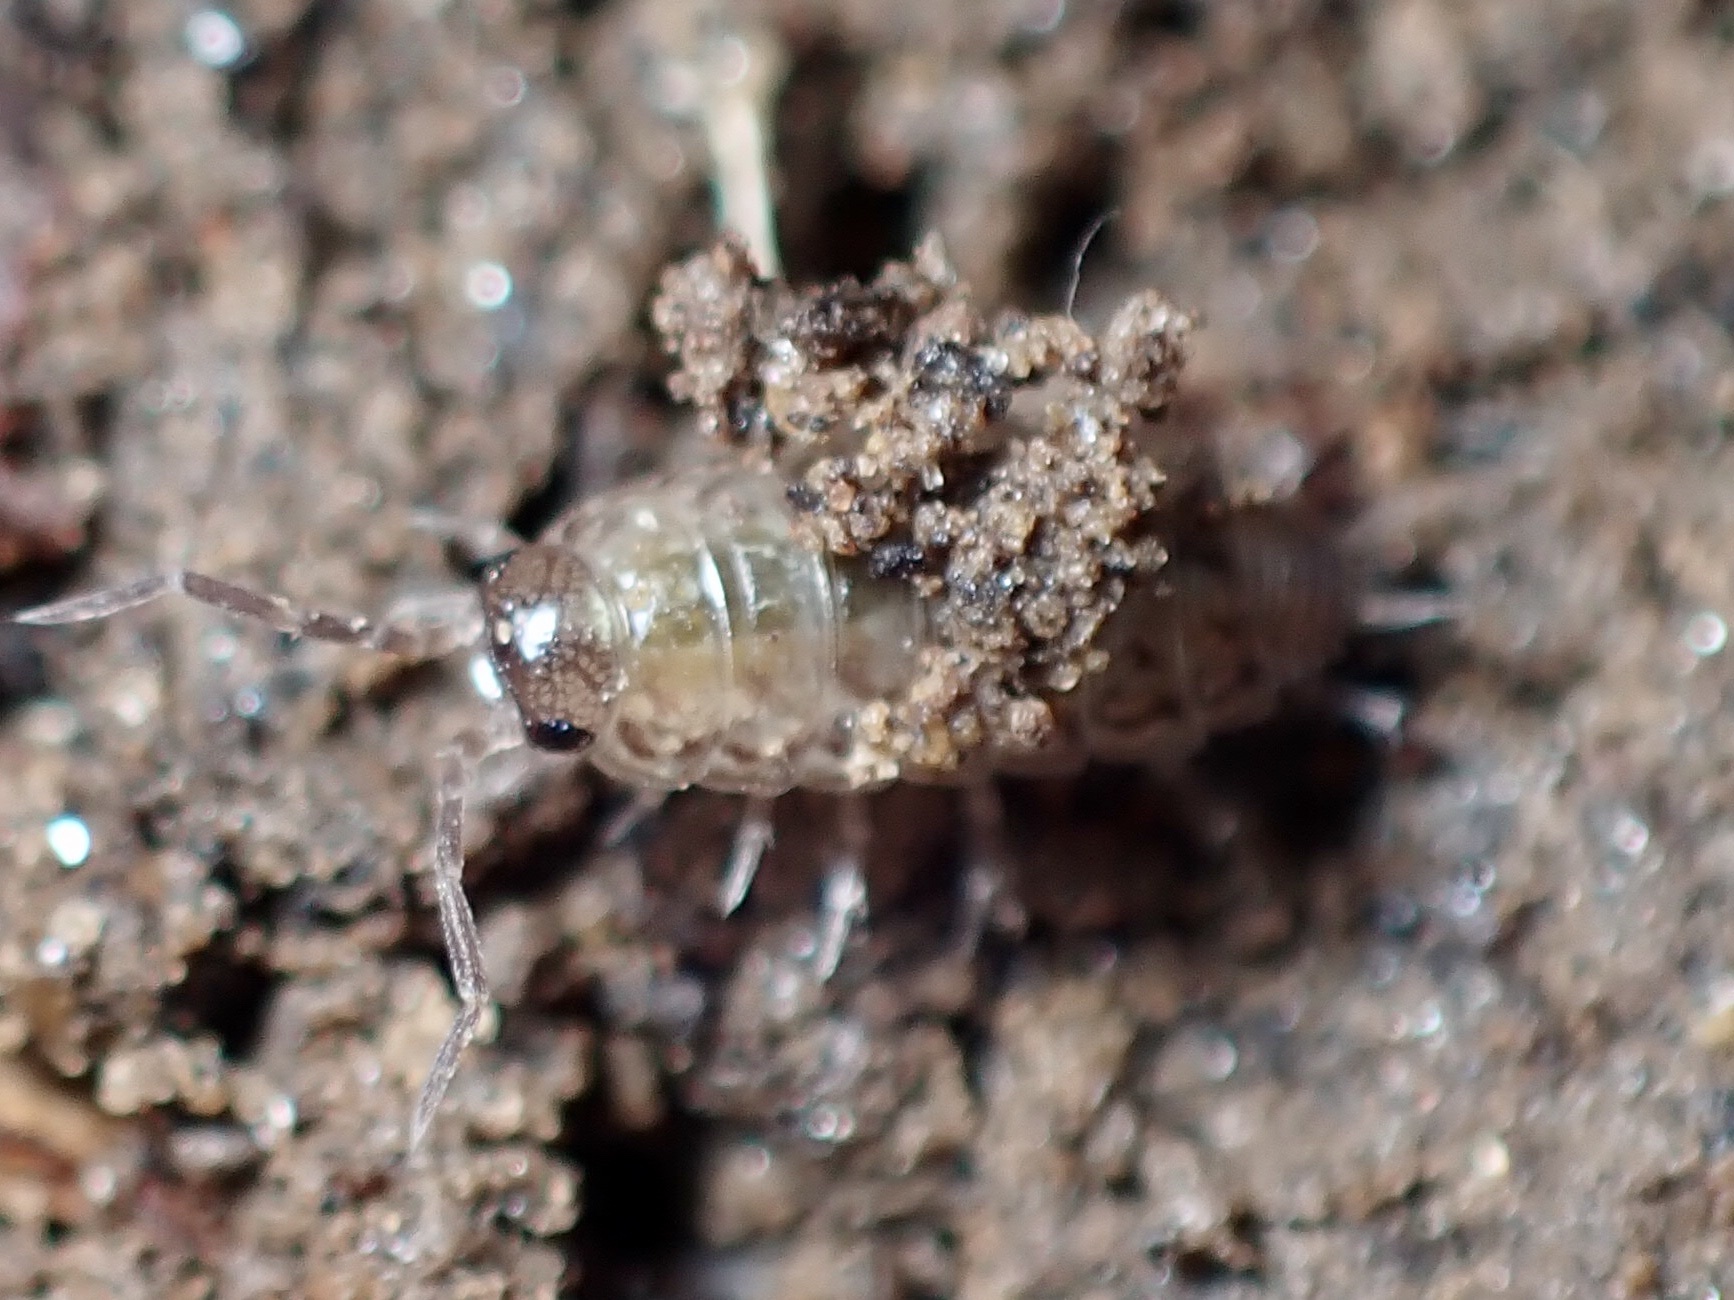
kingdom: Animalia
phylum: Arthropoda
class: Malacostraca
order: Isopoda
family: Philosciidae
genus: Philoscia
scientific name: Philoscia muscorum
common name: Common striped woodlouse
